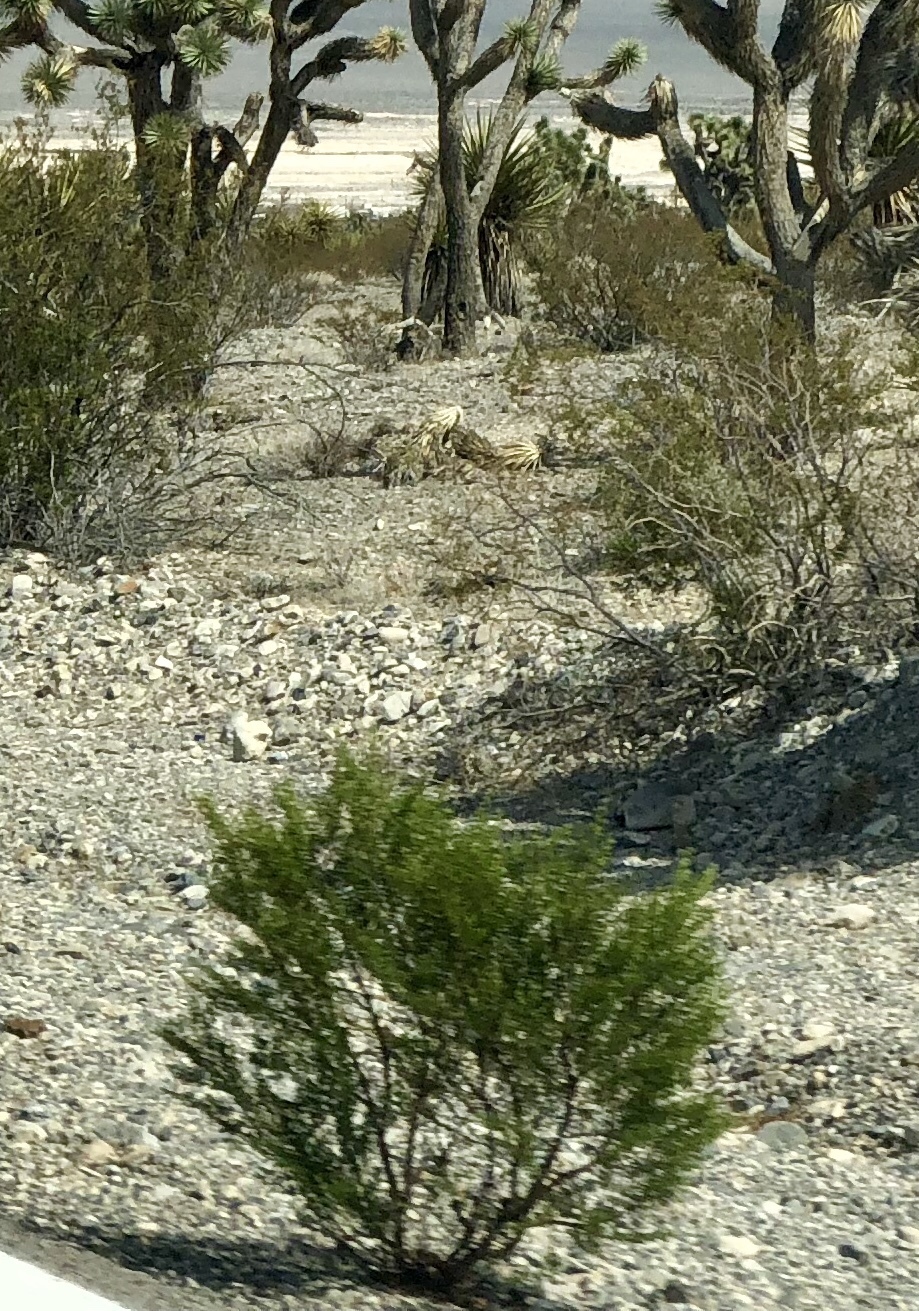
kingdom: Plantae
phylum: Tracheophyta
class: Magnoliopsida
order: Zygophyllales
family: Zygophyllaceae
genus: Larrea
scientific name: Larrea tridentata
